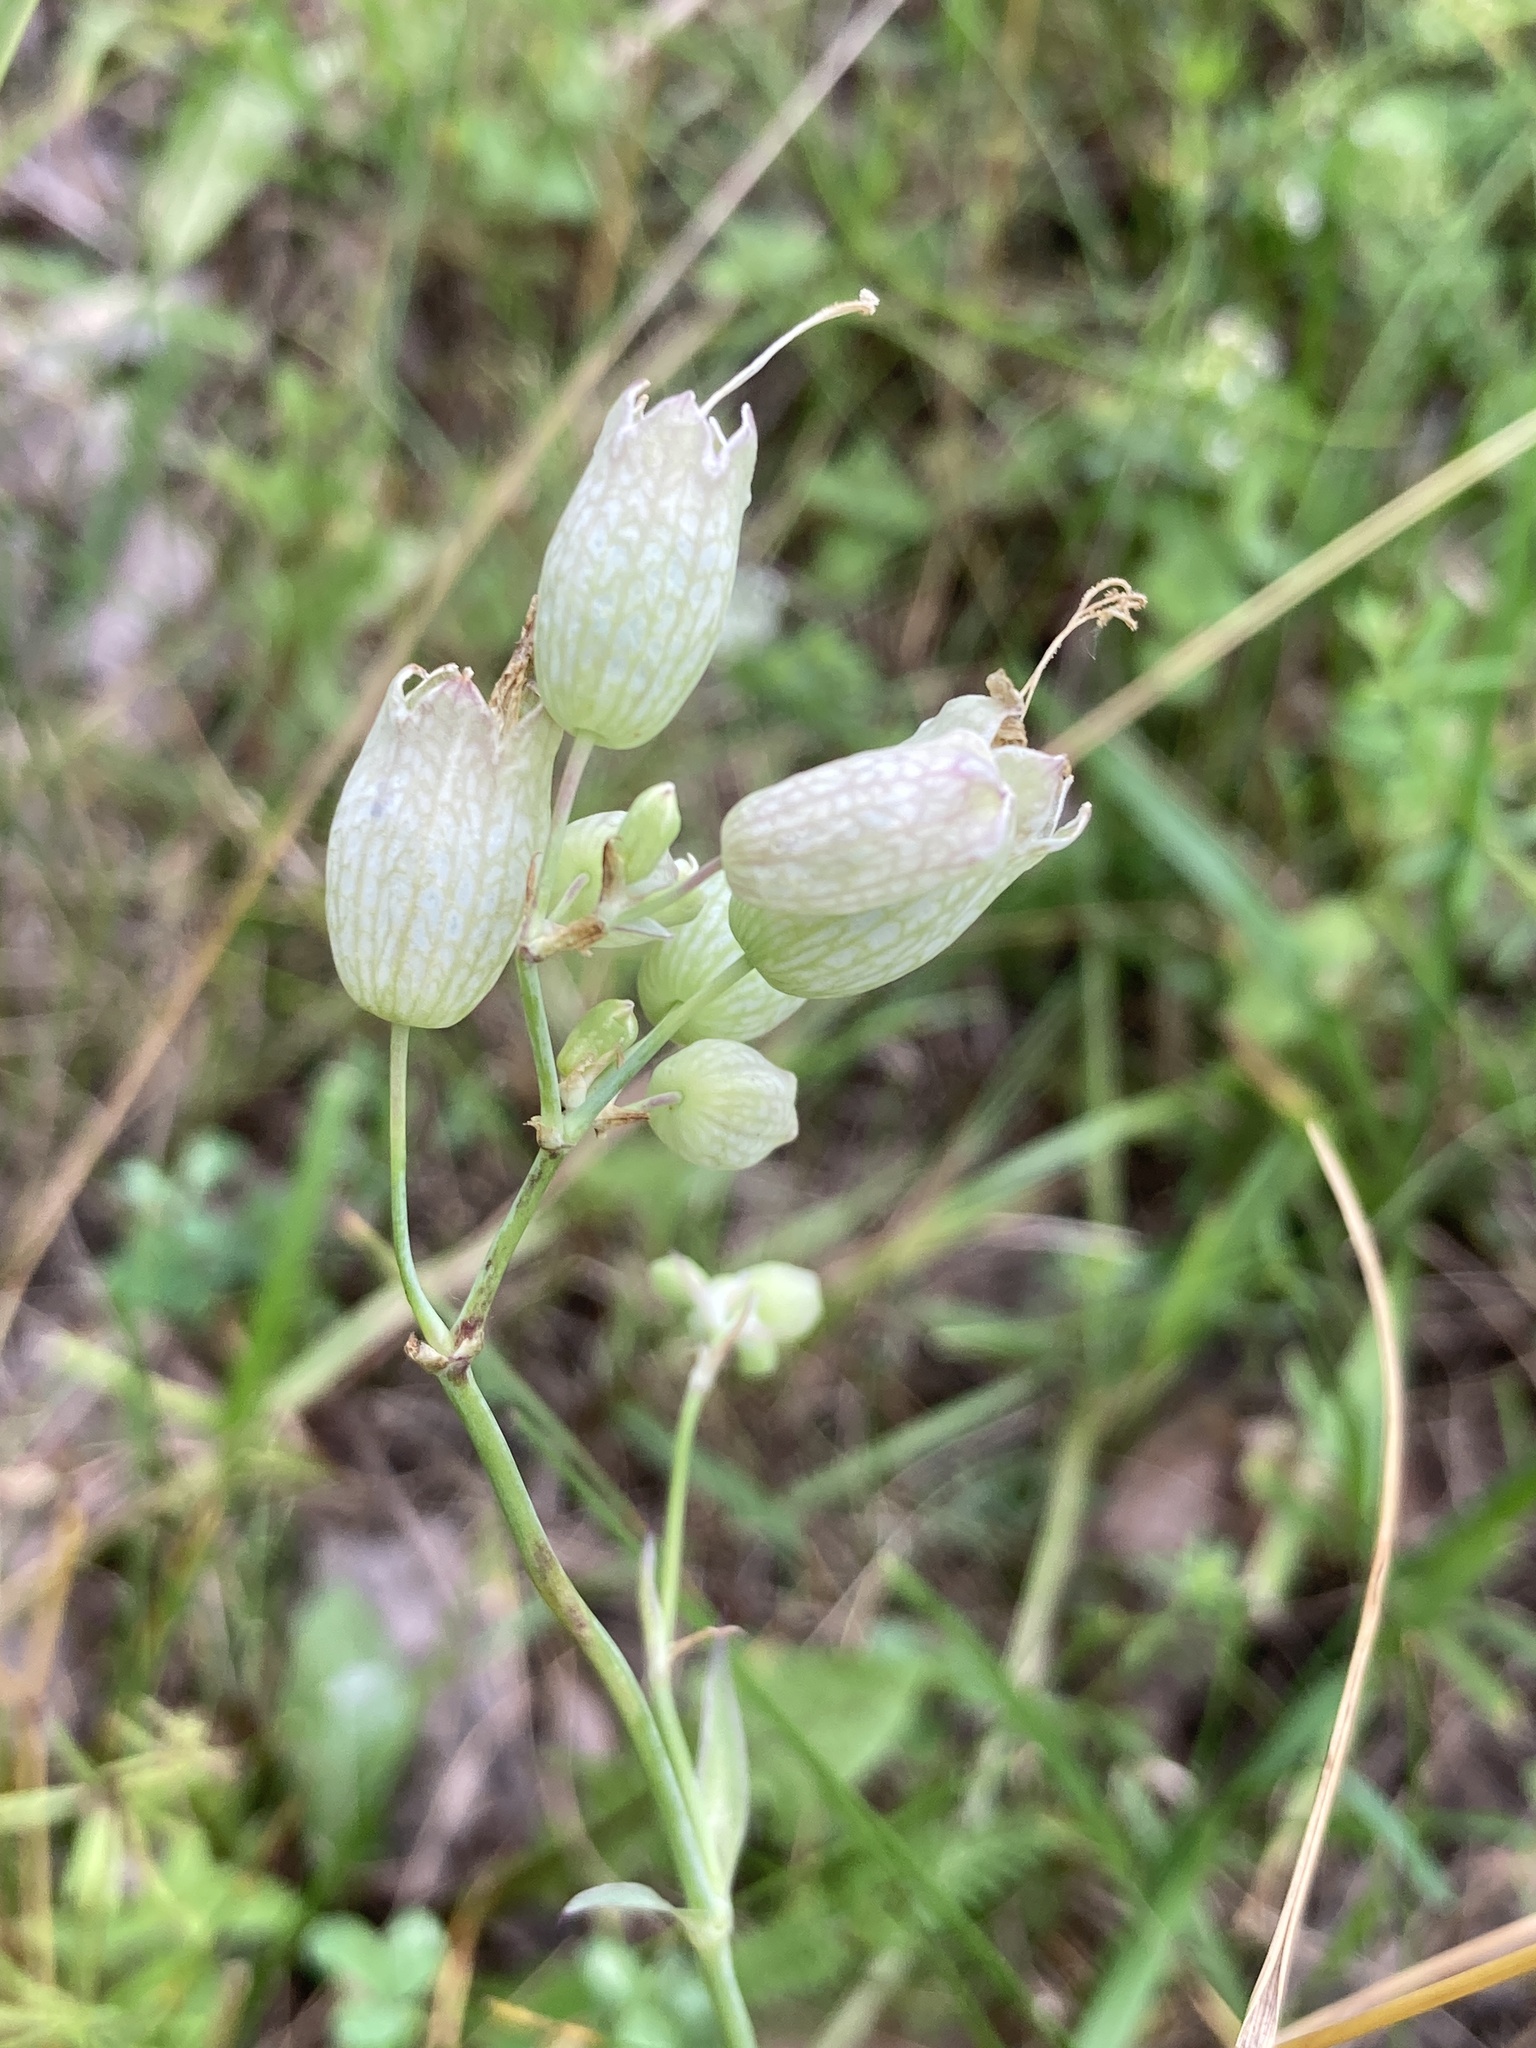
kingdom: Plantae
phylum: Tracheophyta
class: Magnoliopsida
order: Caryophyllales
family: Caryophyllaceae
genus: Silene
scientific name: Silene vulgaris
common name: Bladder campion
